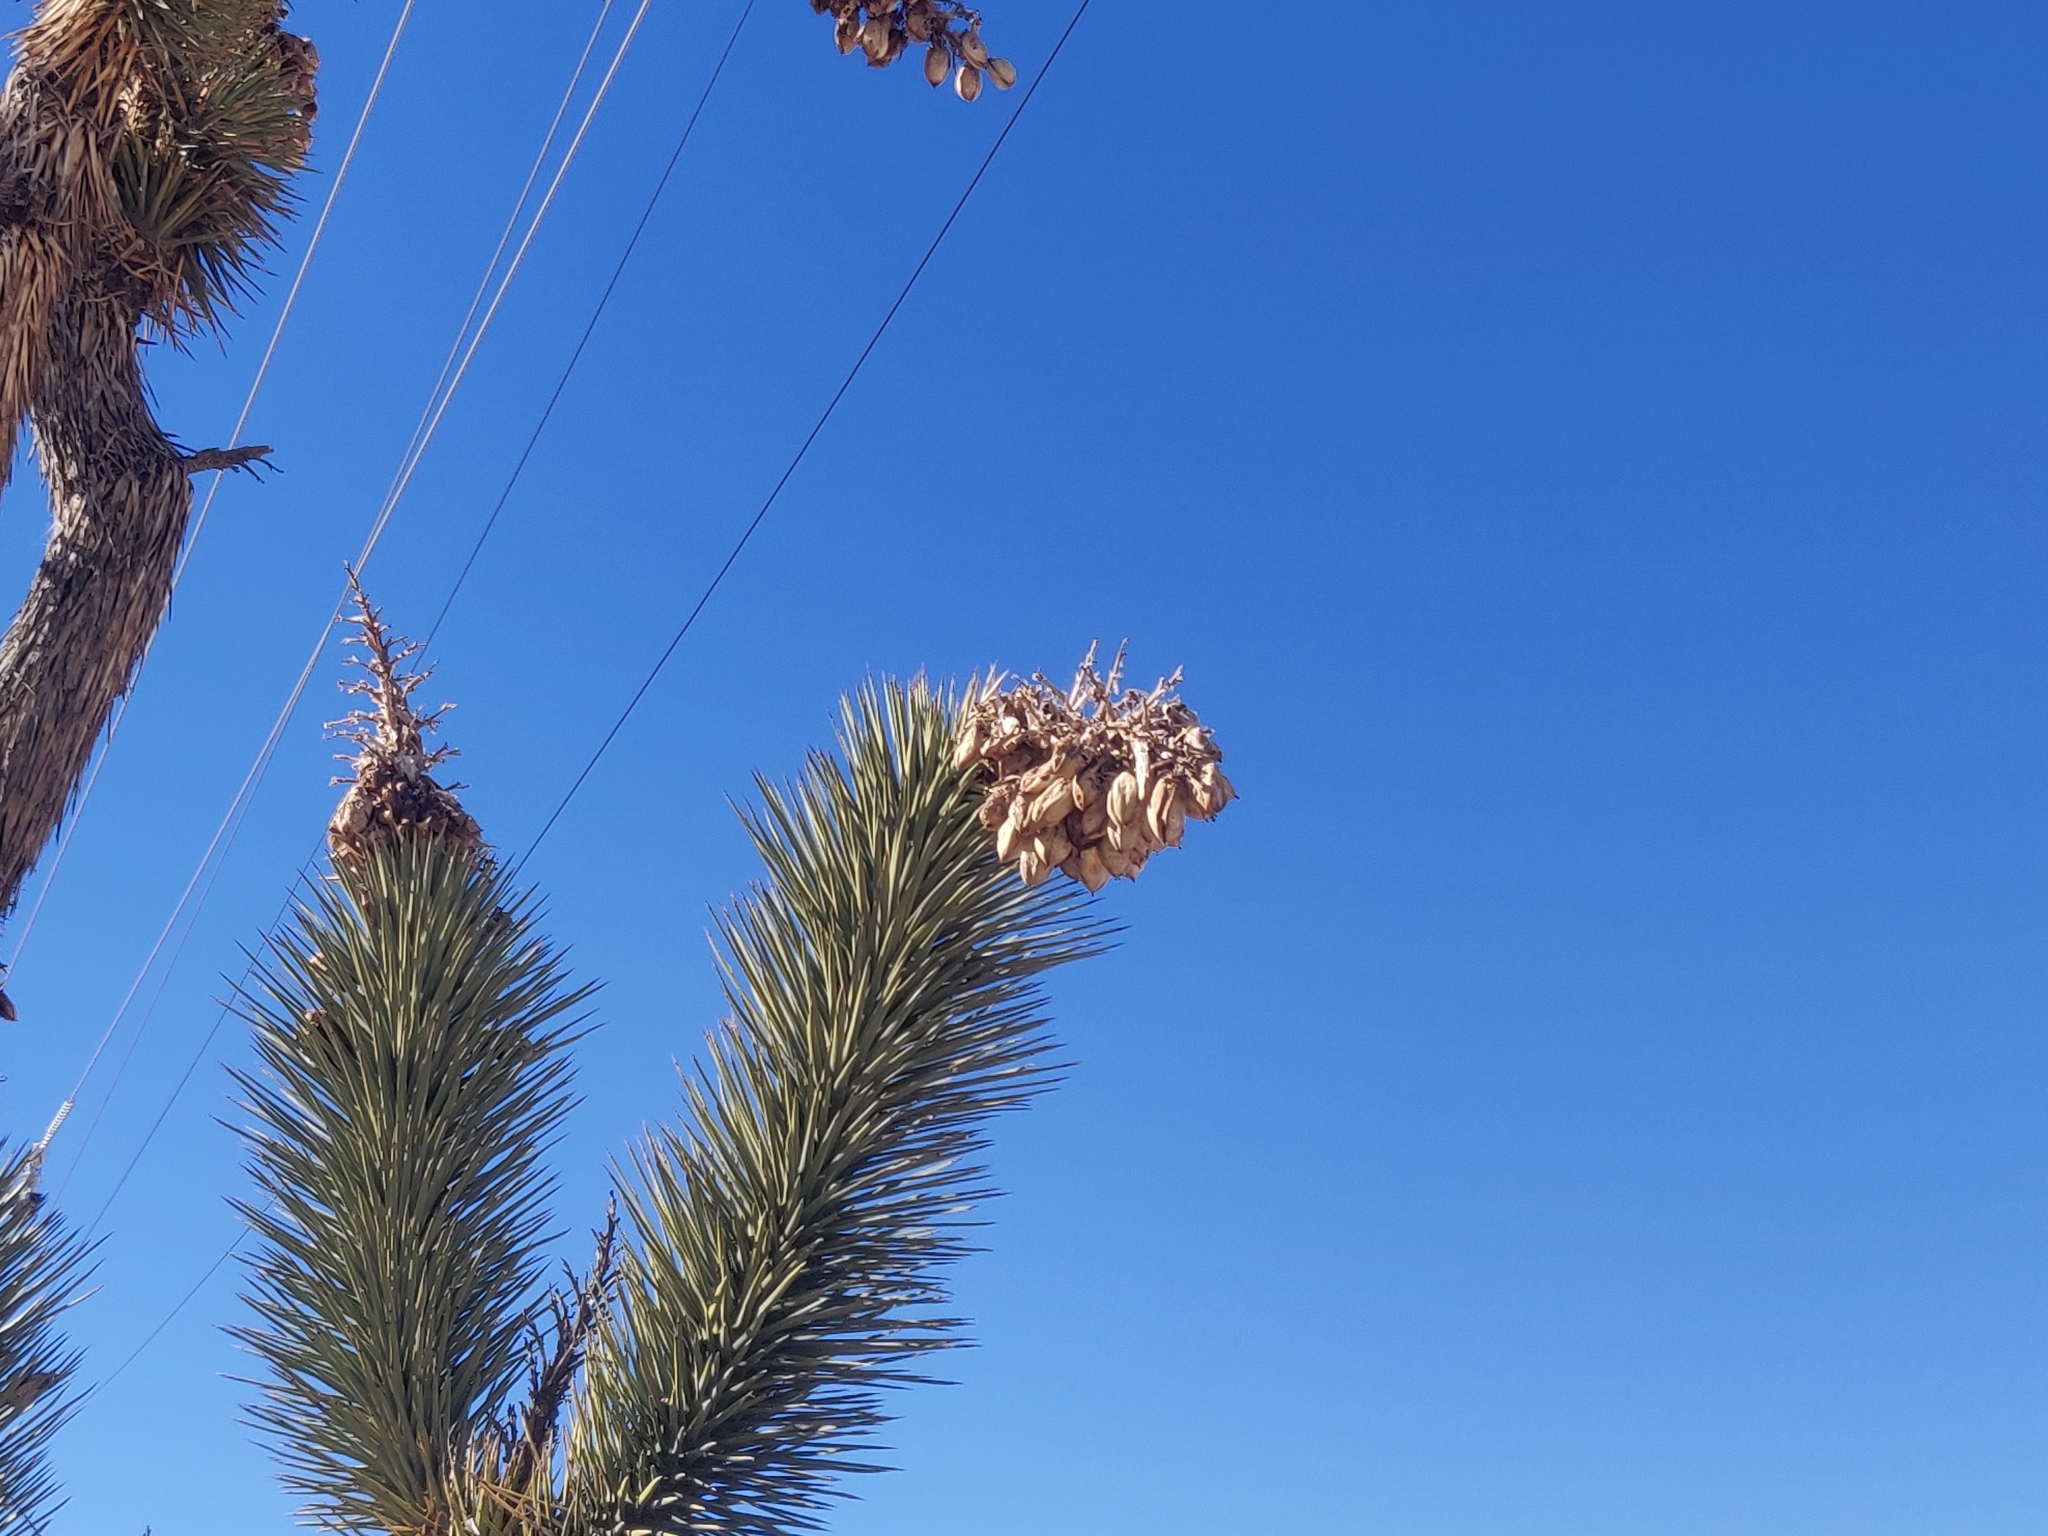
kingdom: Plantae
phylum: Tracheophyta
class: Liliopsida
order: Asparagales
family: Asparagaceae
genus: Yucca
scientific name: Yucca brevifolia
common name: Joshua tree
